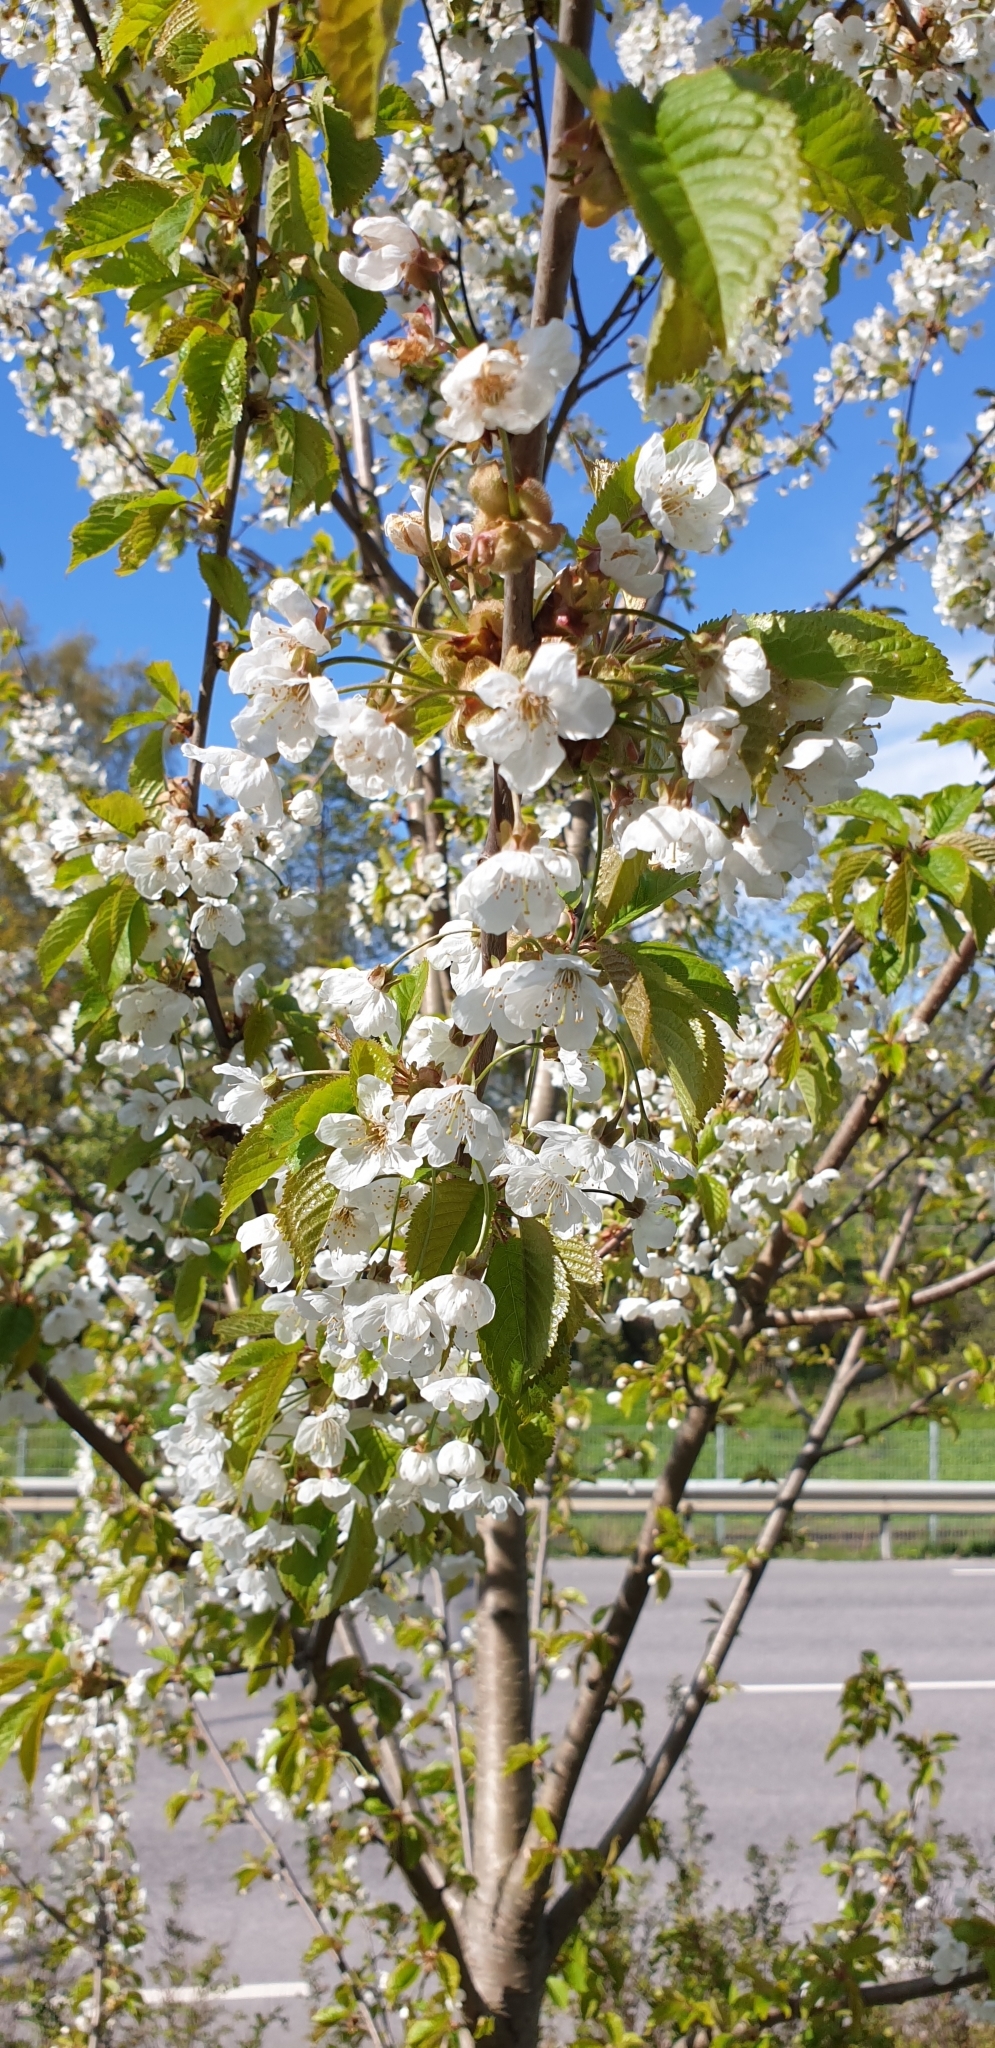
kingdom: Plantae
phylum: Tracheophyta
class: Magnoliopsida
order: Rosales
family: Rosaceae
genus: Prunus
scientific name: Prunus avium
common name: Sweet cherry
